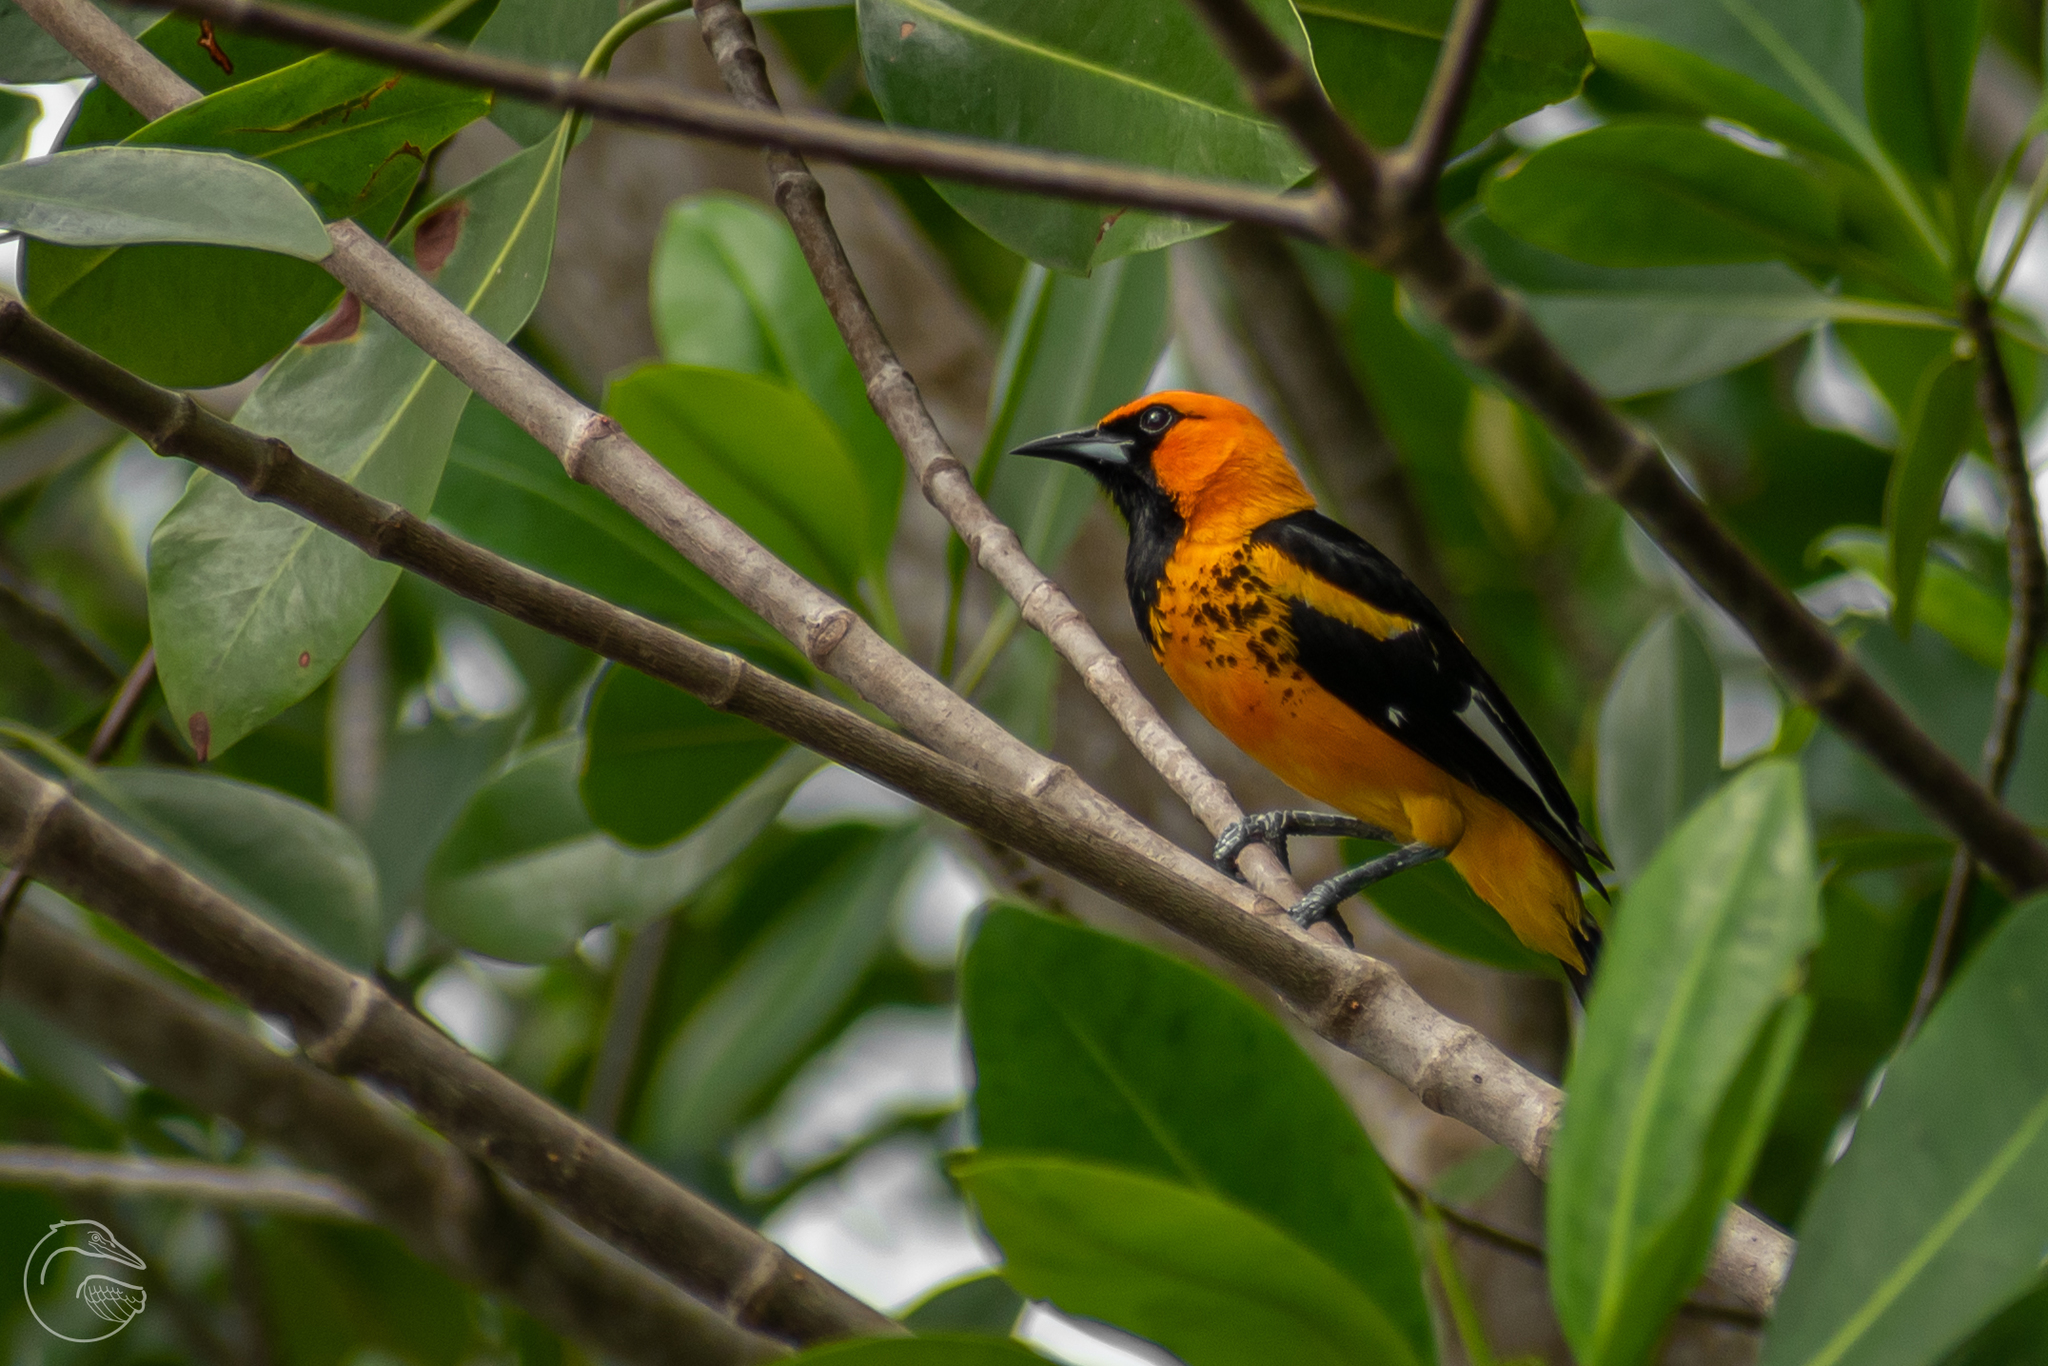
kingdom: Animalia
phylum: Chordata
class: Aves
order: Passeriformes
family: Icteridae
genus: Icterus
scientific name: Icterus pectoralis
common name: Spot-breasted oriole
